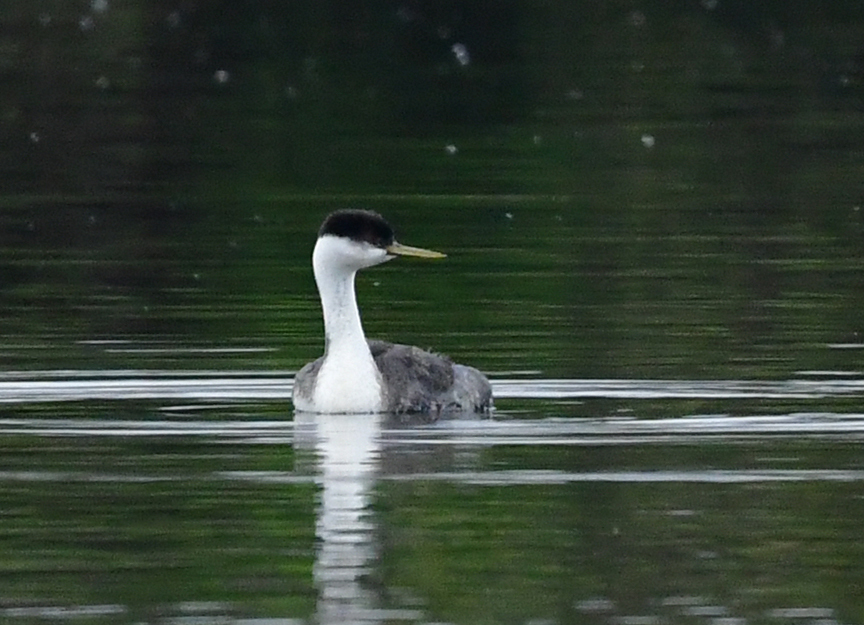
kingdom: Animalia
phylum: Chordata
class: Aves
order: Podicipediformes
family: Podicipedidae
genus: Aechmophorus
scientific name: Aechmophorus occidentalis
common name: Western grebe
